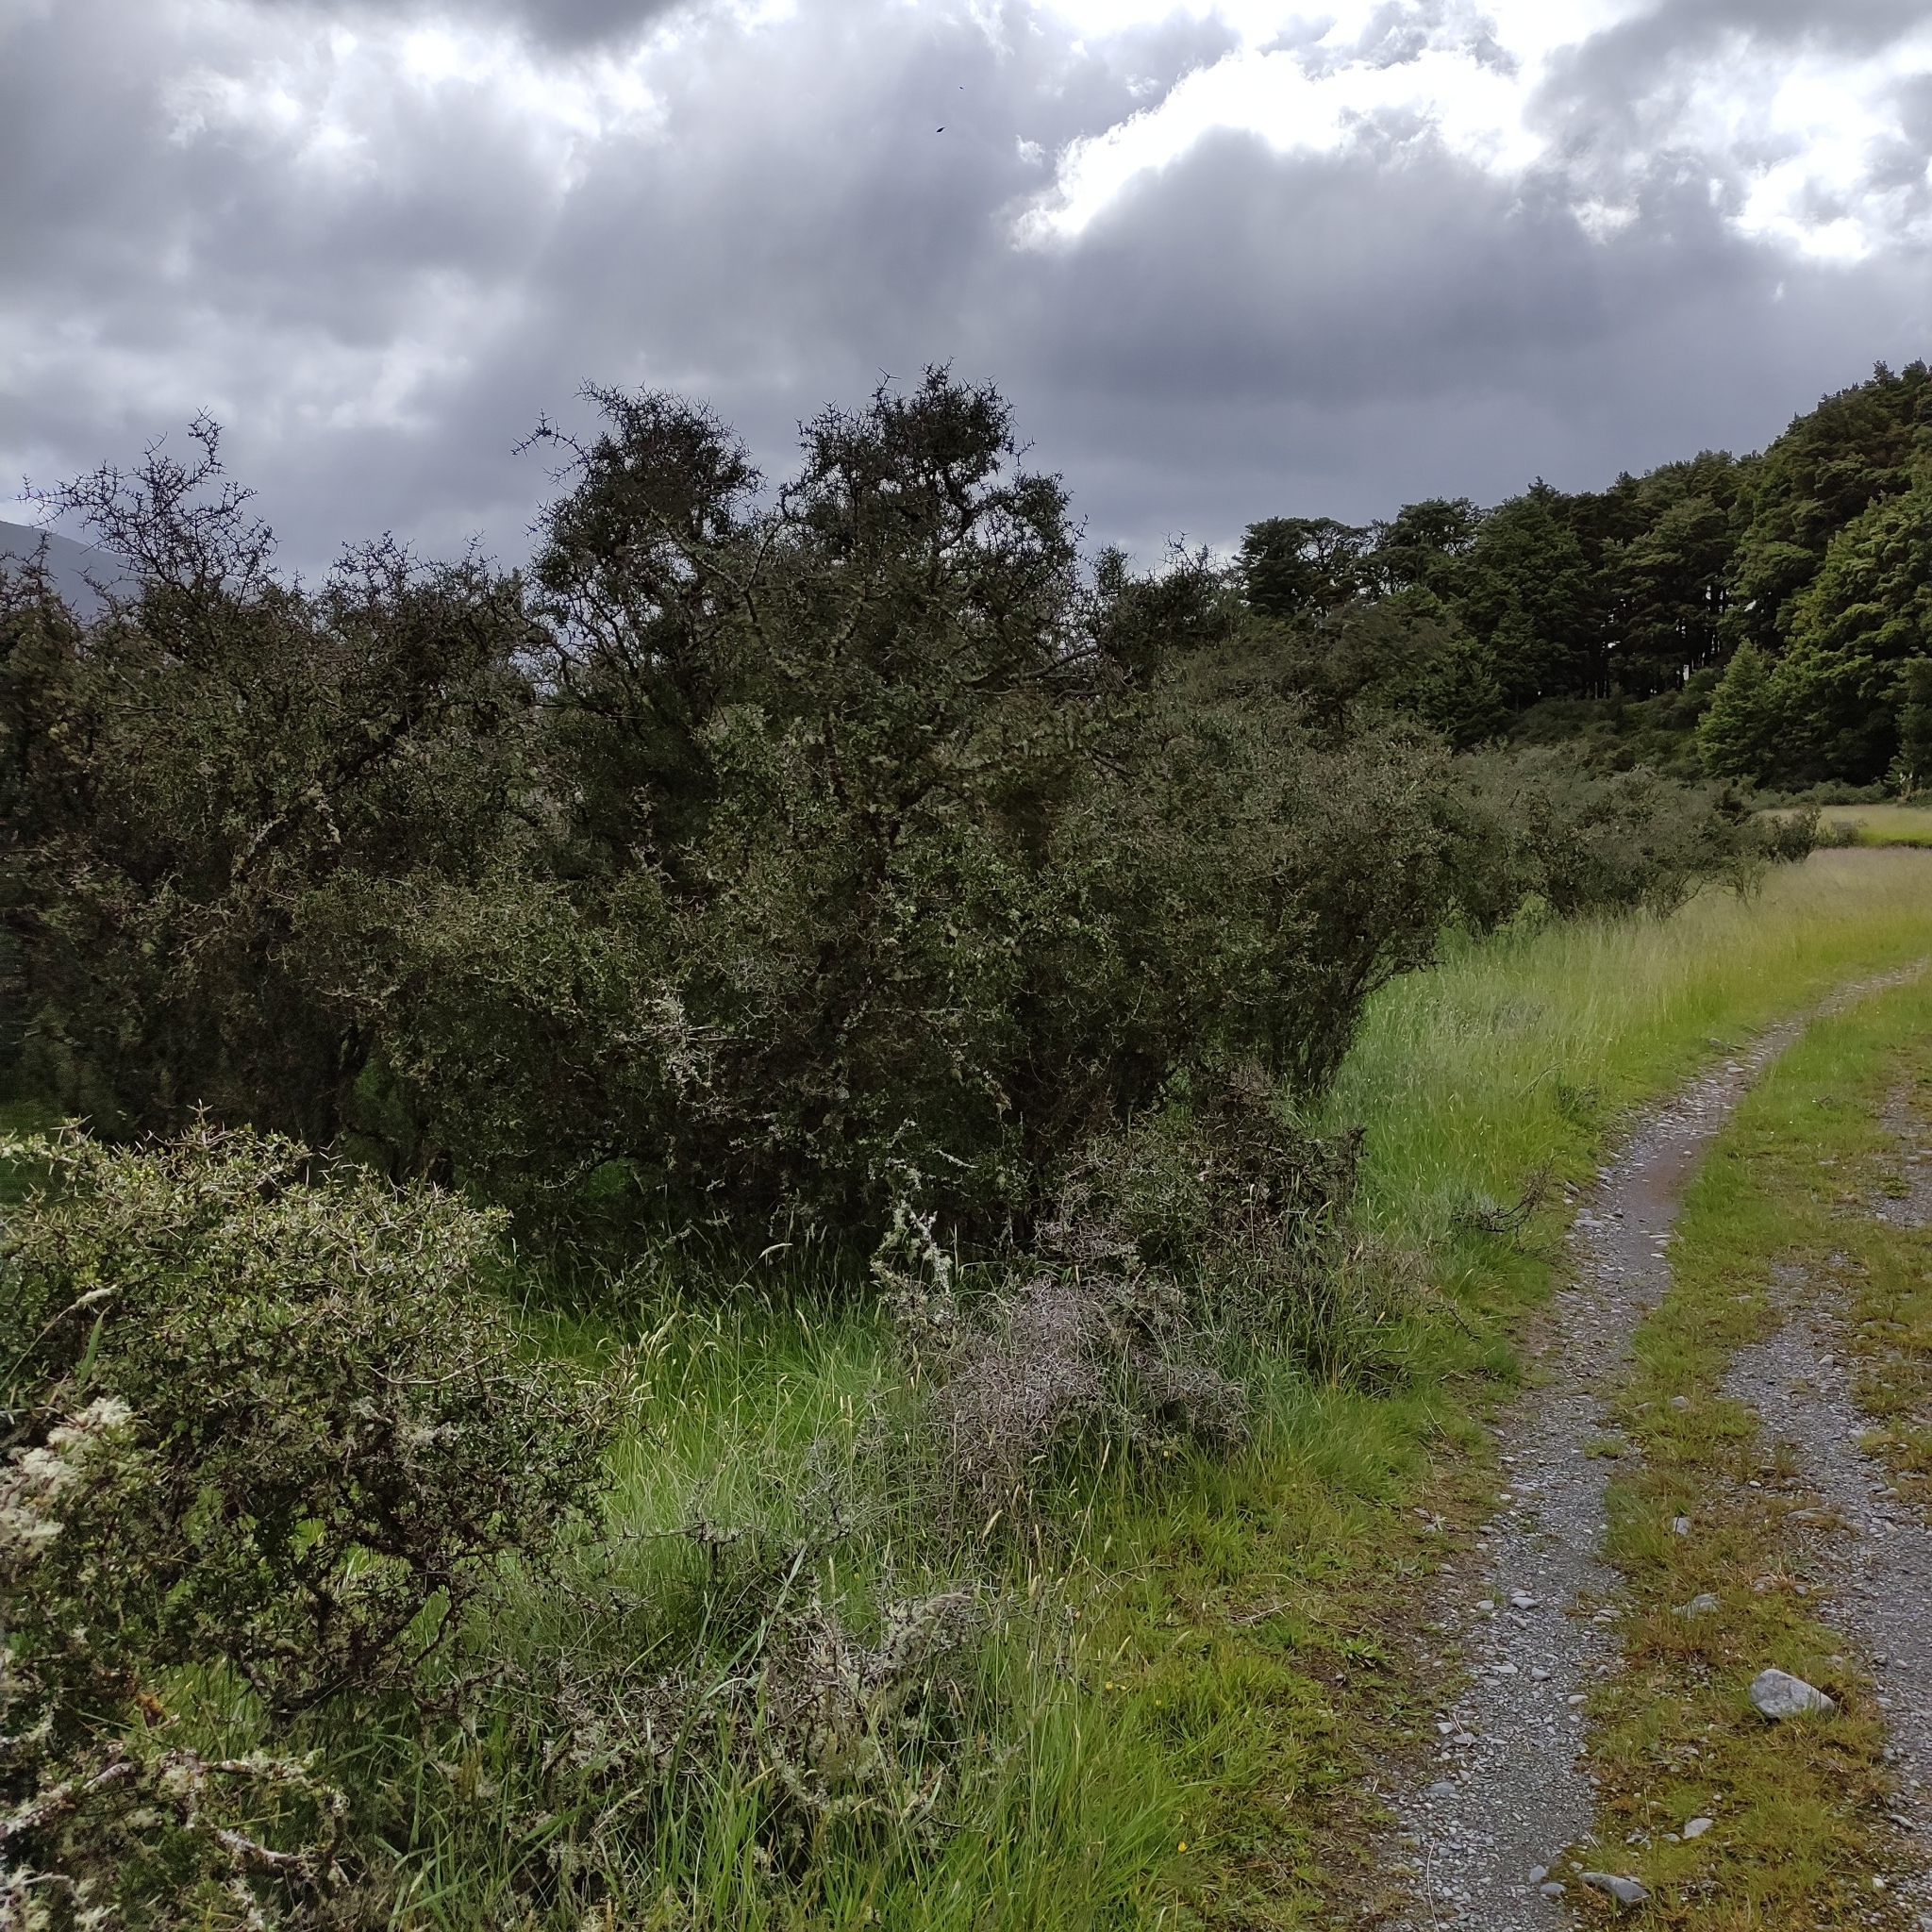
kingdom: Plantae
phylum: Tracheophyta
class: Magnoliopsida
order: Rosales
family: Rhamnaceae
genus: Discaria
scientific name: Discaria toumatou
